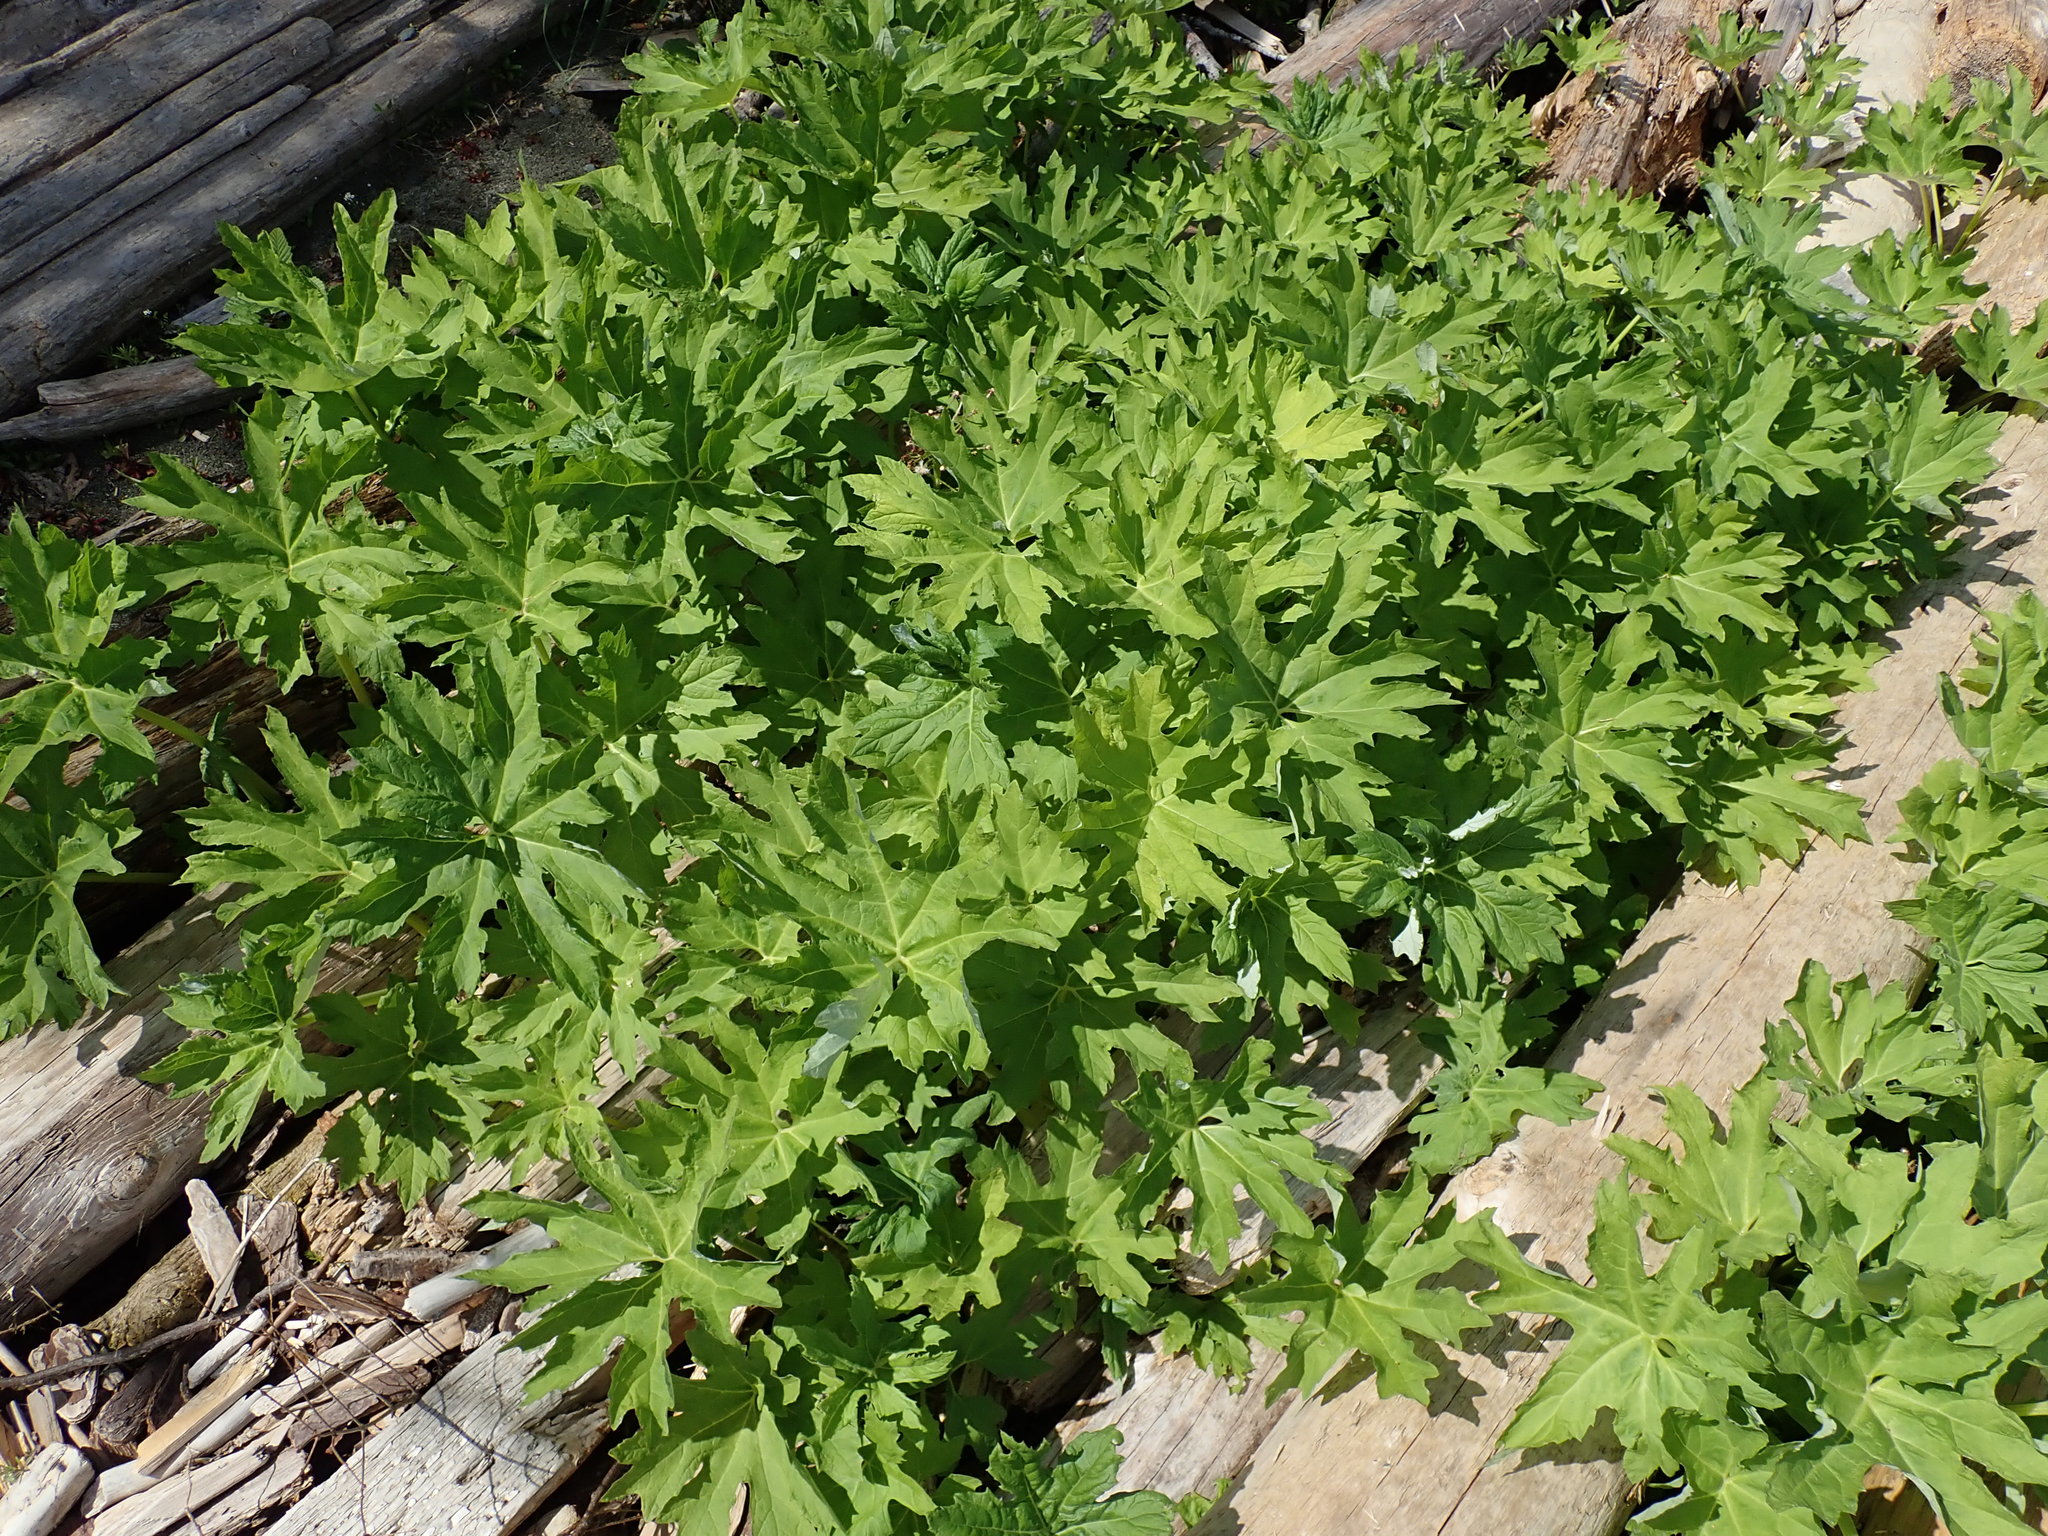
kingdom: Plantae
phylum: Tracheophyta
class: Magnoliopsida
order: Asterales
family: Asteraceae
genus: Petasites
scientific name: Petasites frigidus
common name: Arctic butterbur
